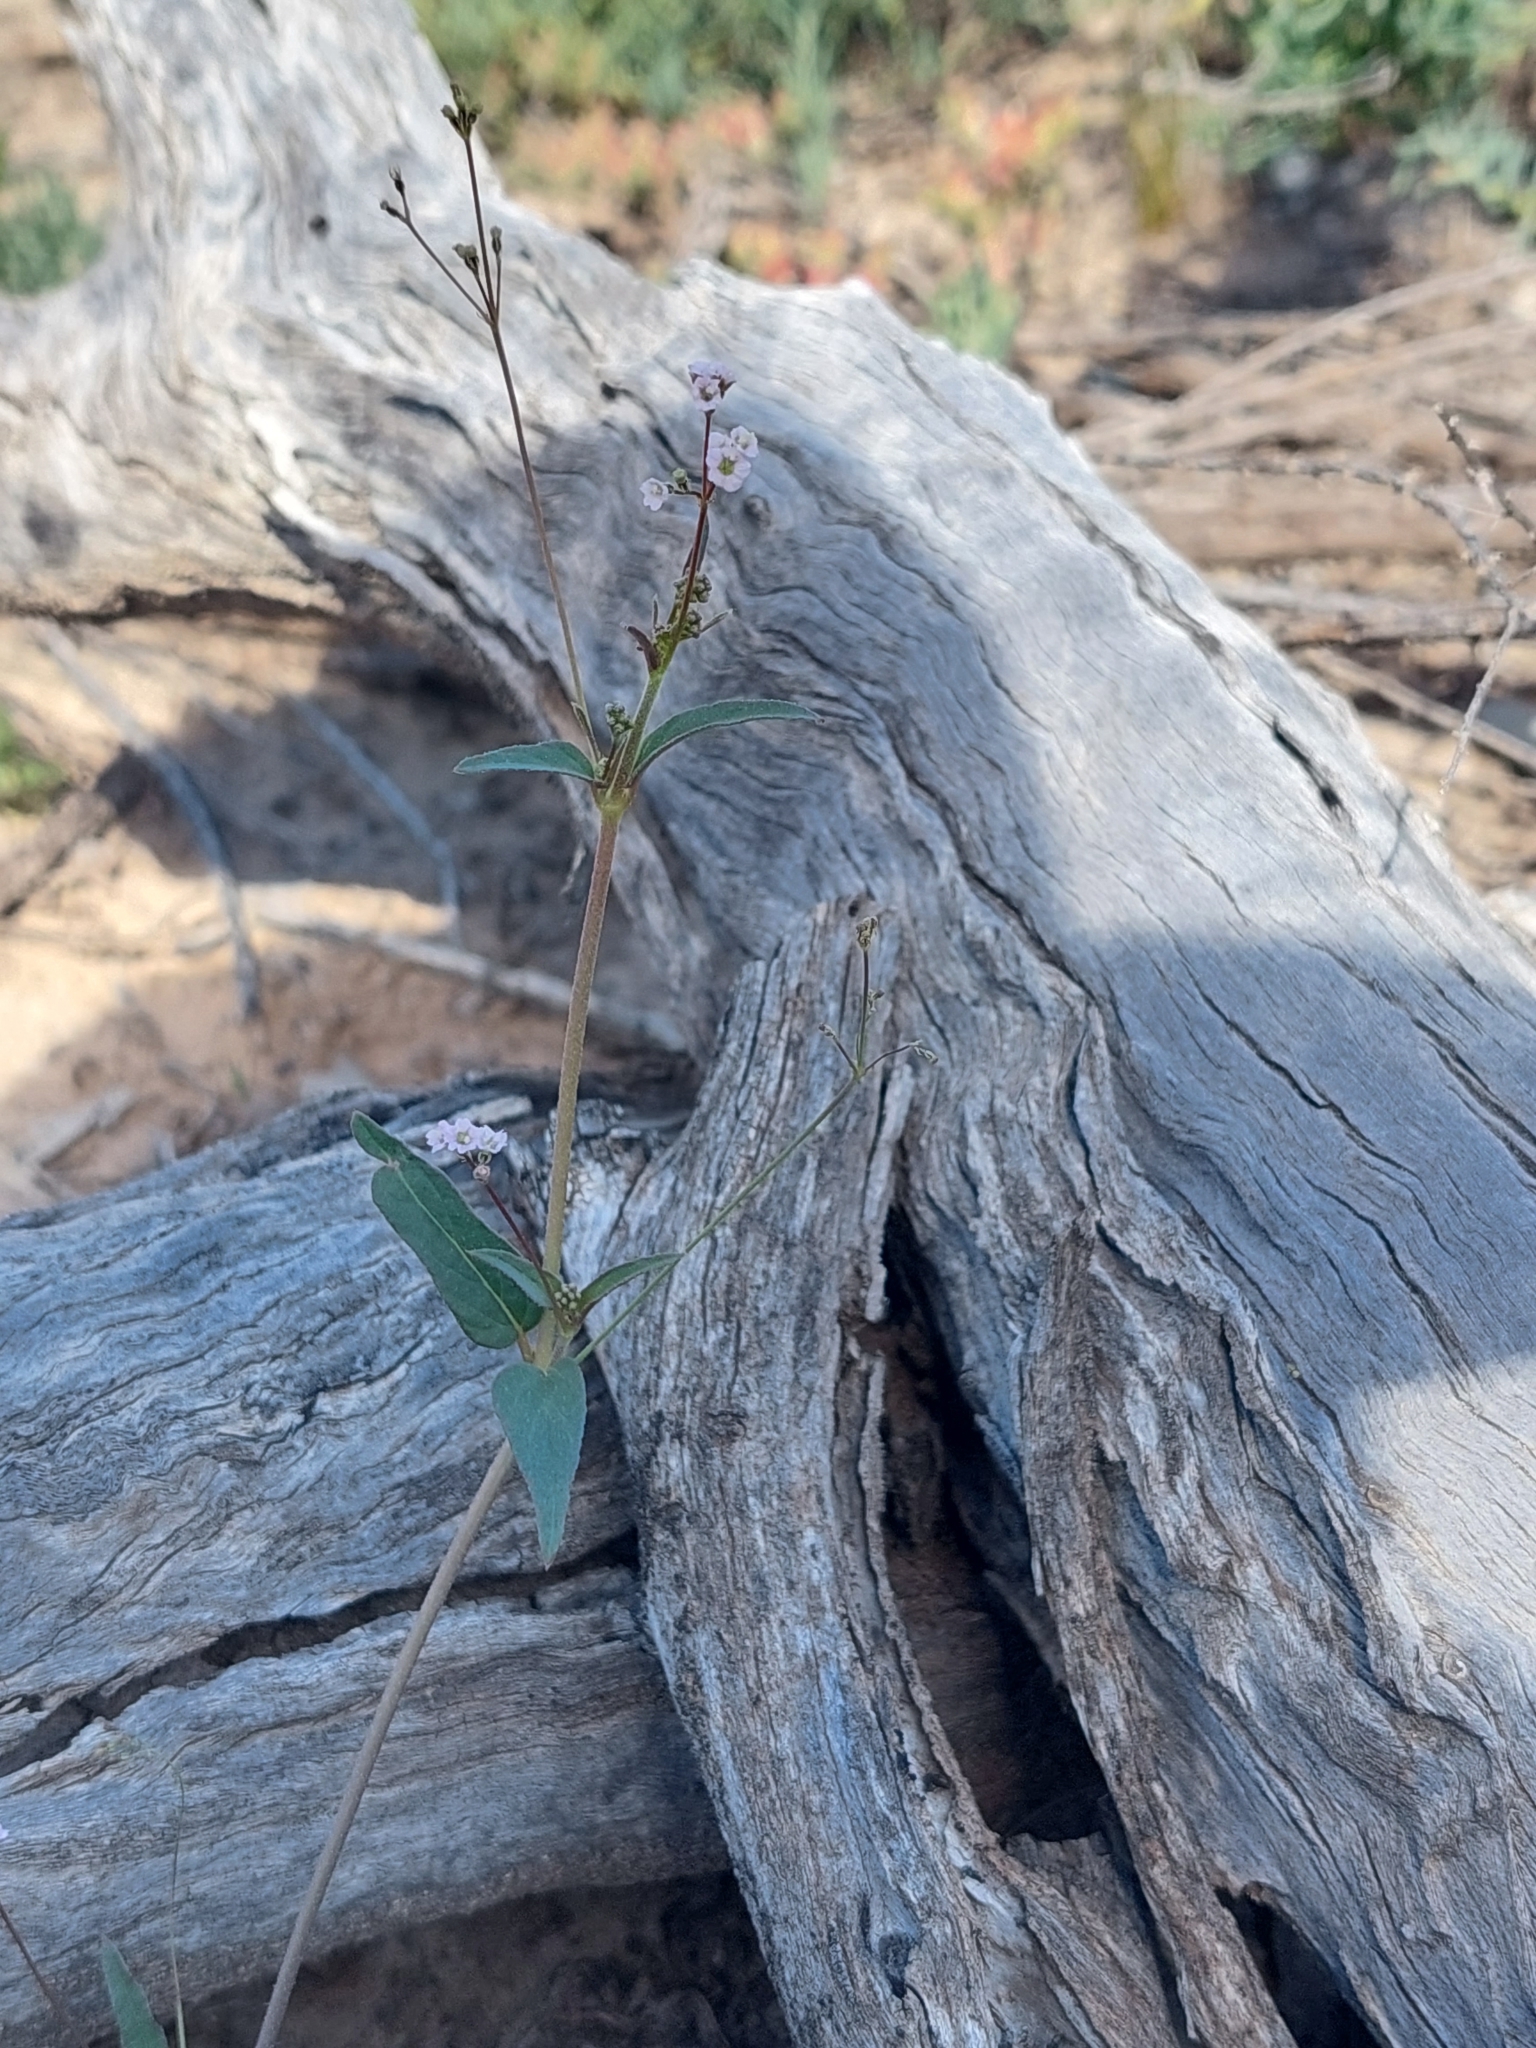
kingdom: Plantae
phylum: Tracheophyta
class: Magnoliopsida
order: Caryophyllales
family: Nyctaginaceae
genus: Boerhavia
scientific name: Boerhavia dominii
